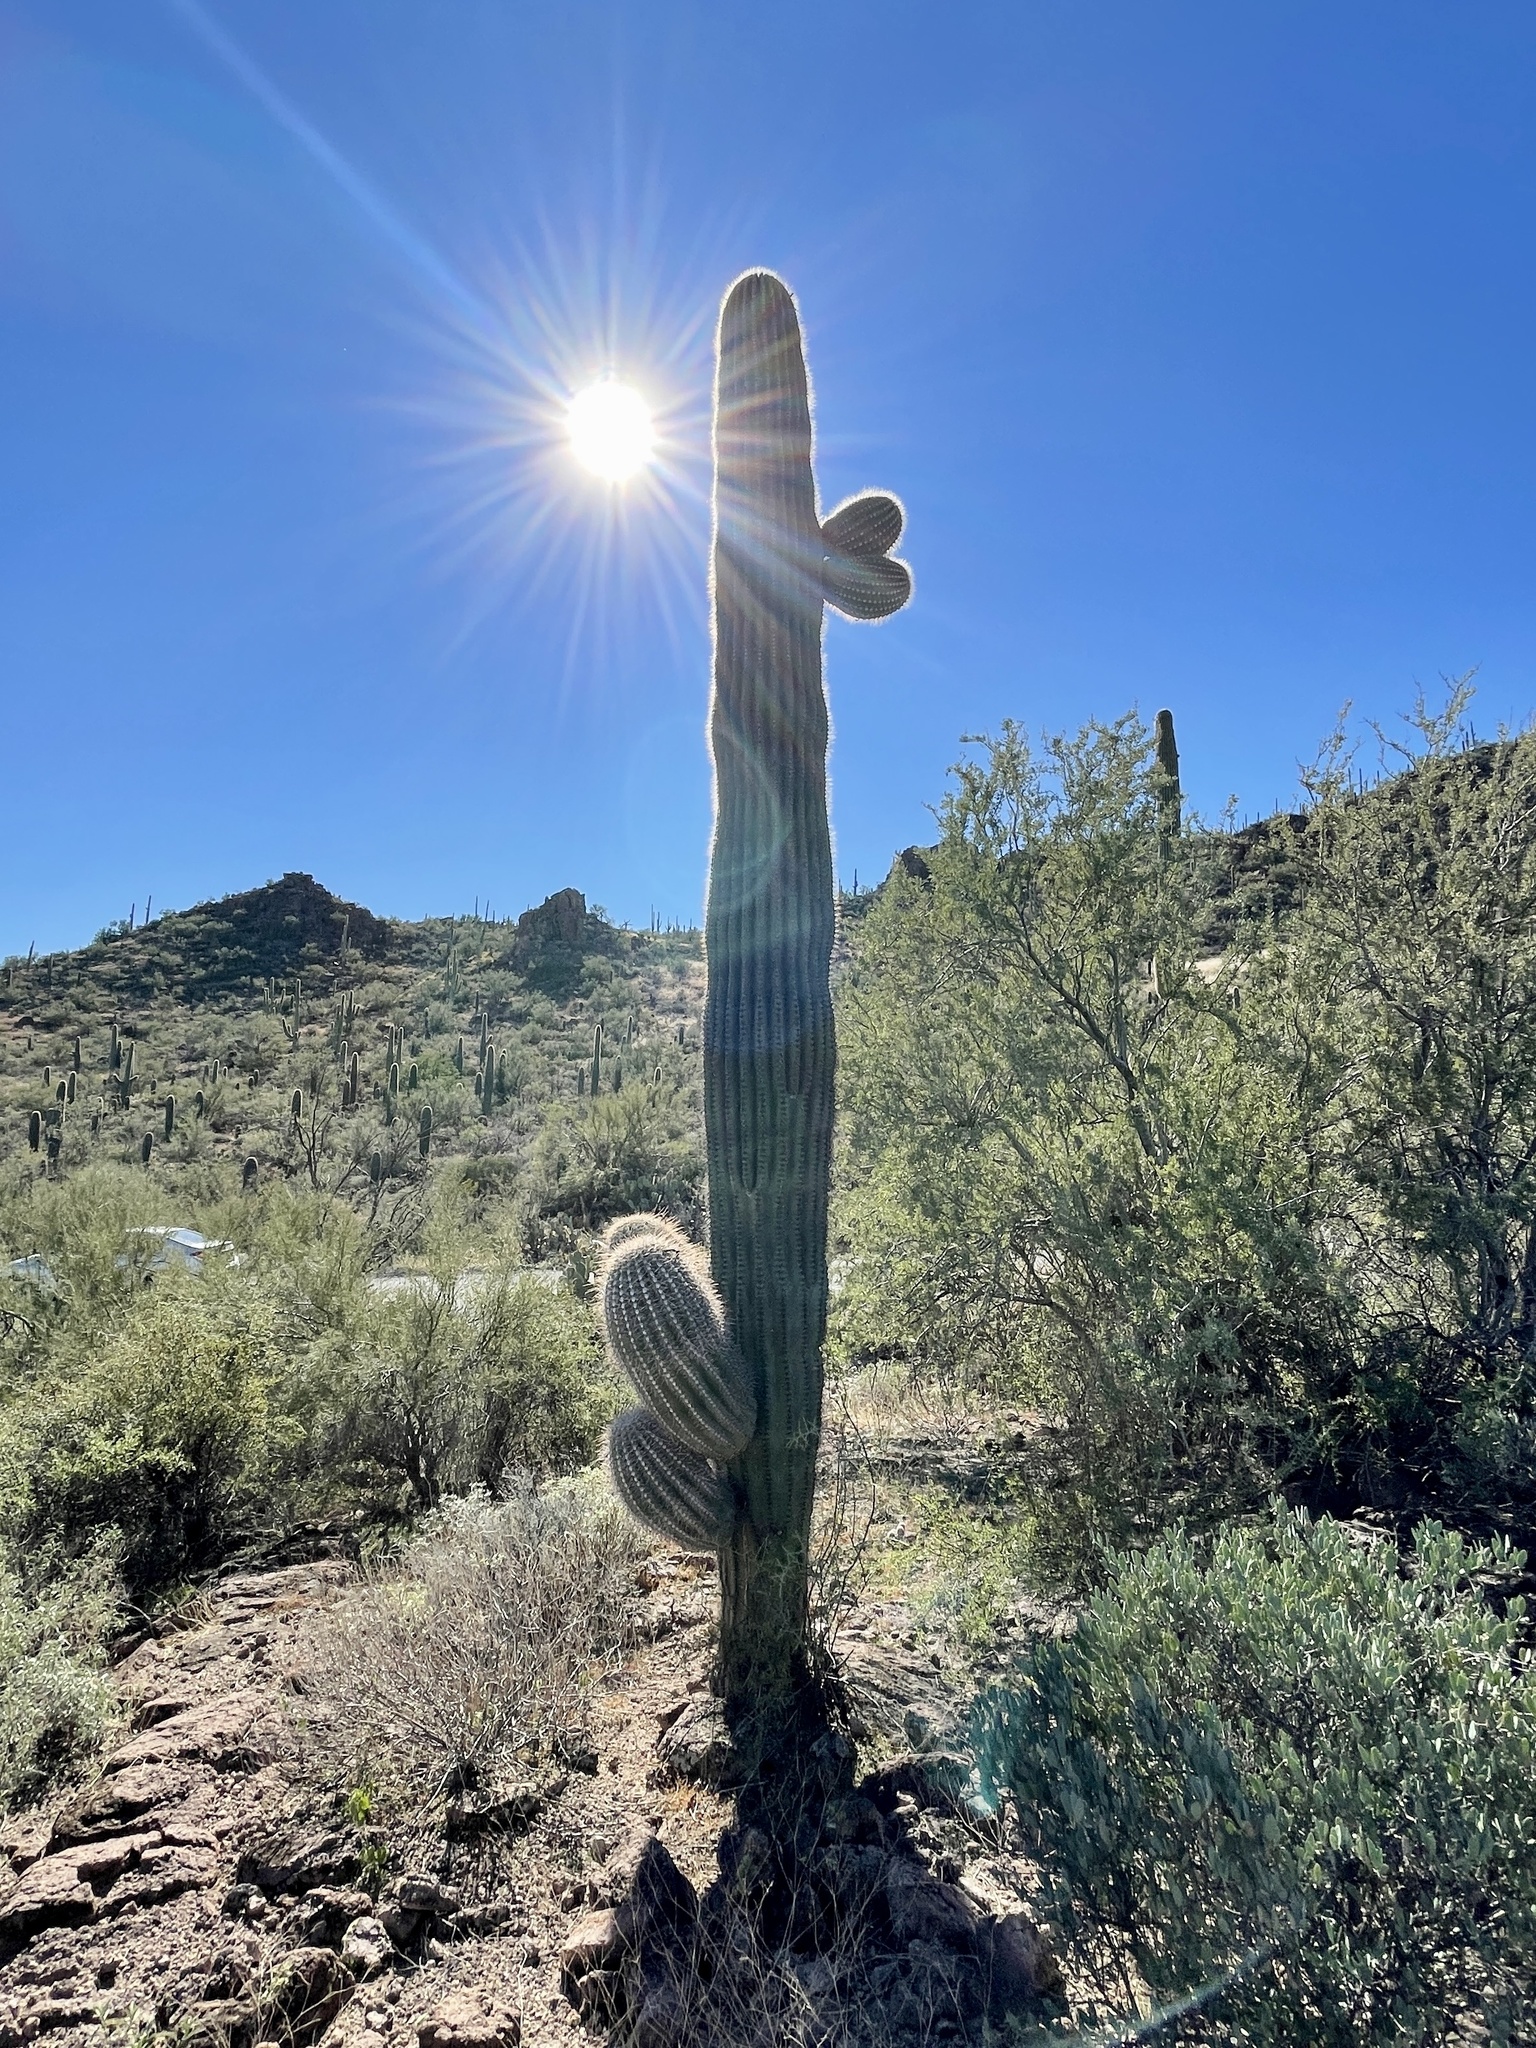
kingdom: Plantae
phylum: Tracheophyta
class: Magnoliopsida
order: Caryophyllales
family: Cactaceae
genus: Carnegiea
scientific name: Carnegiea gigantea
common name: Saguaro
